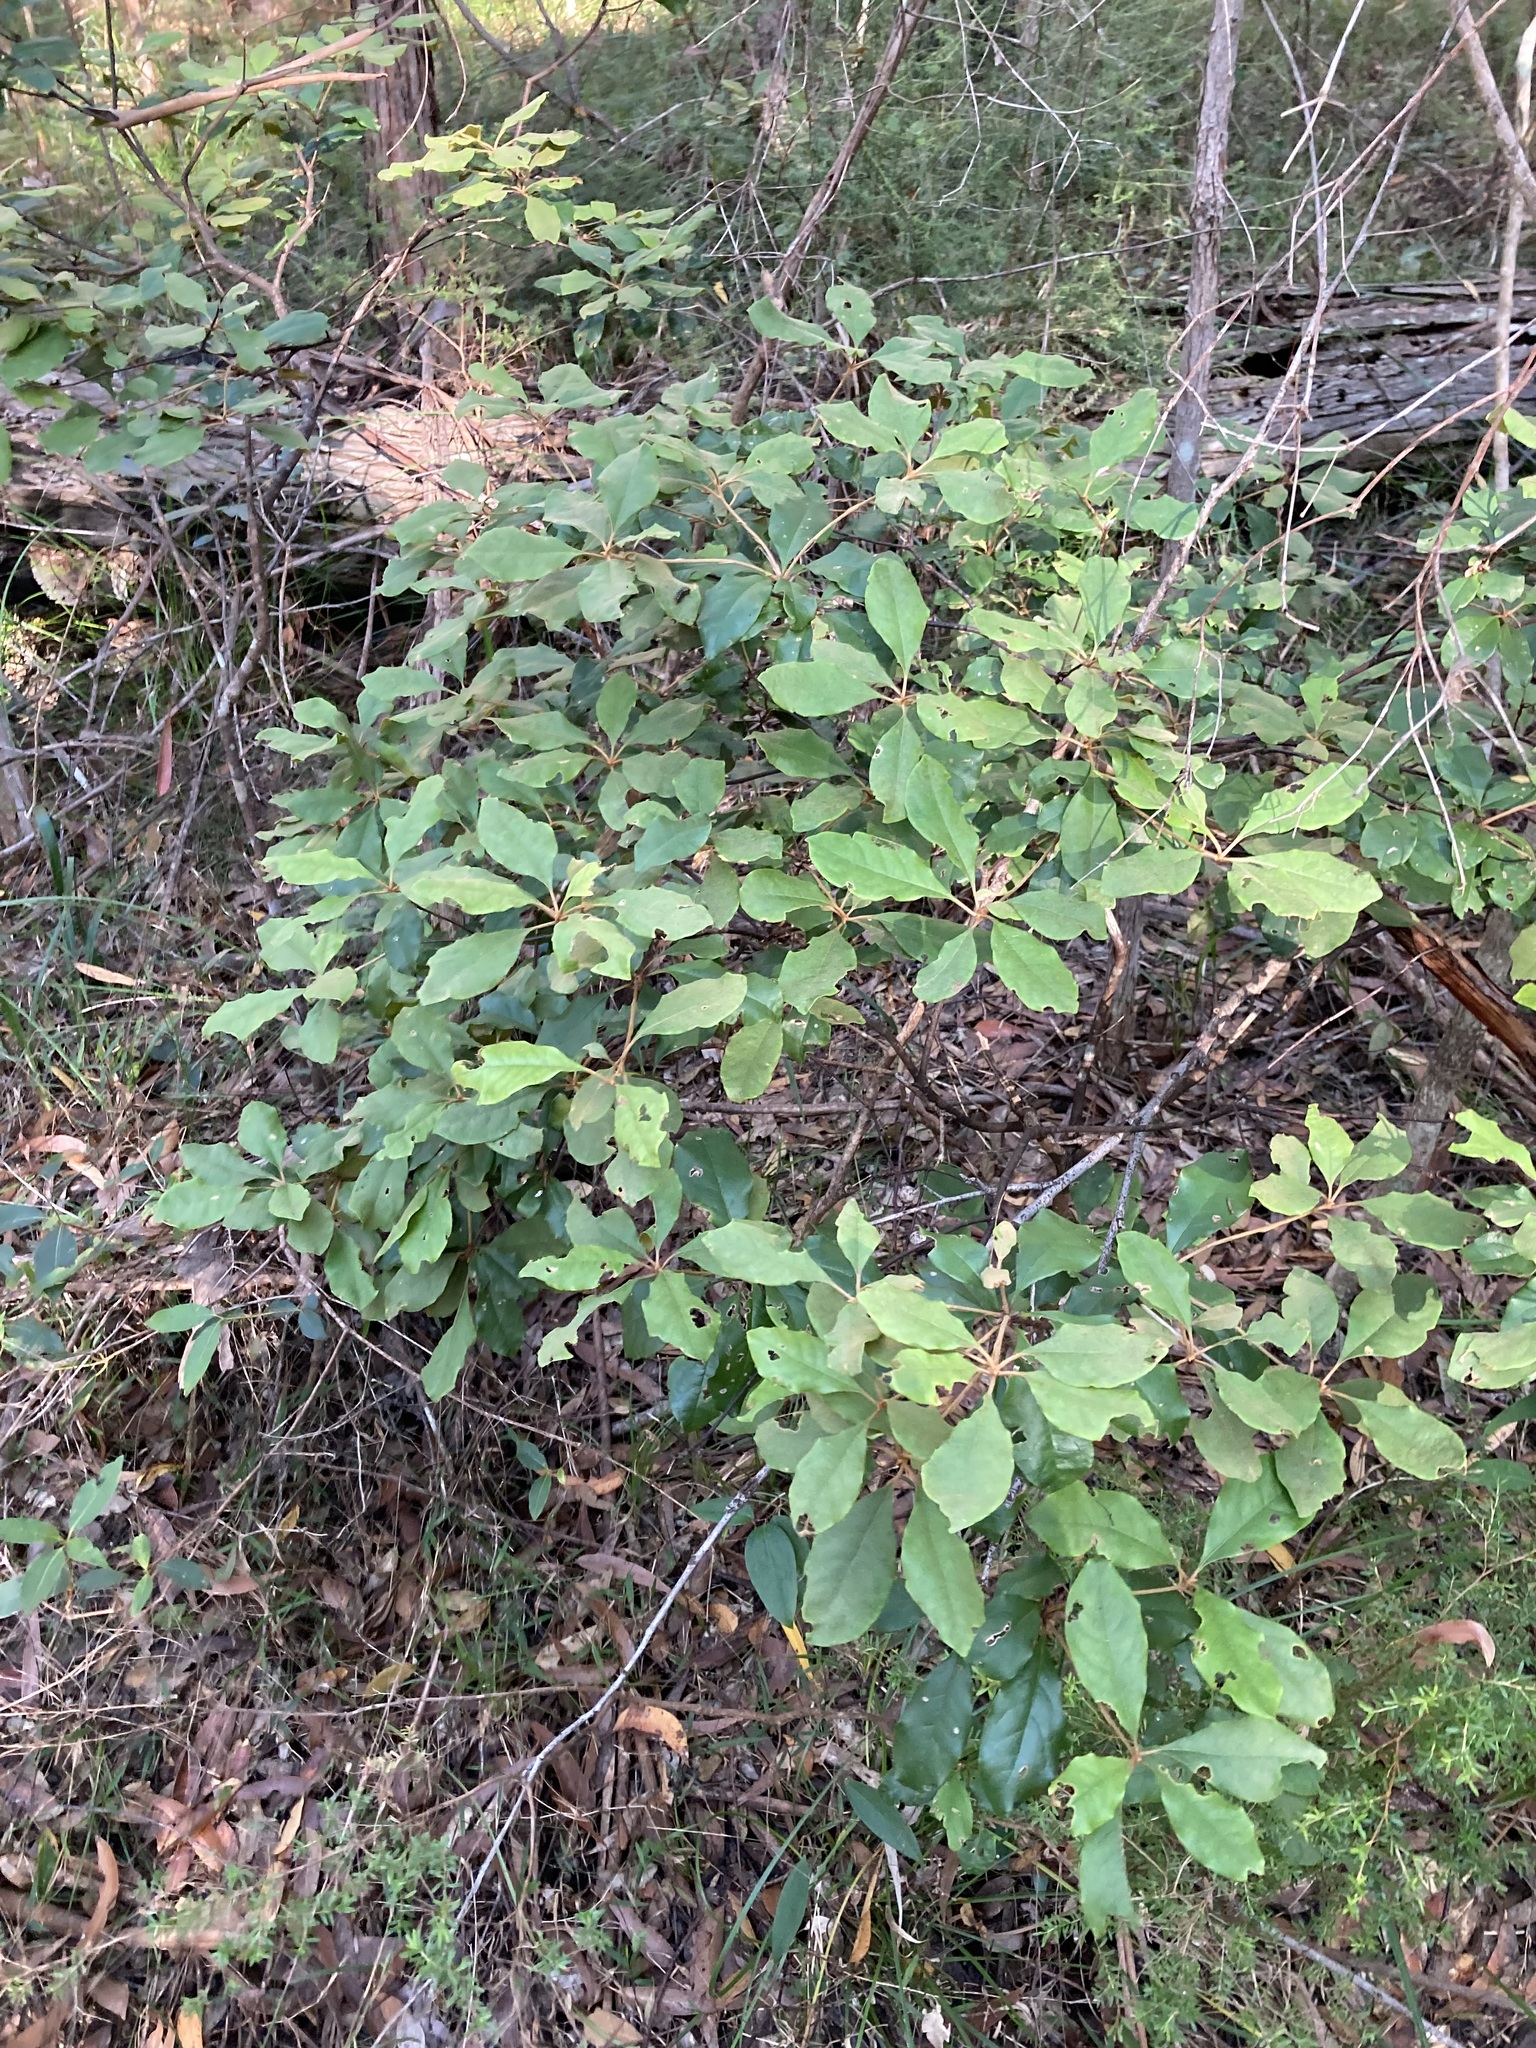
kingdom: Plantae
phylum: Tracheophyta
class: Magnoliopsida
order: Apiales
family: Pittosporaceae
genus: Pittosporum
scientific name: Pittosporum revolutum
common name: Brisbane-laurel
